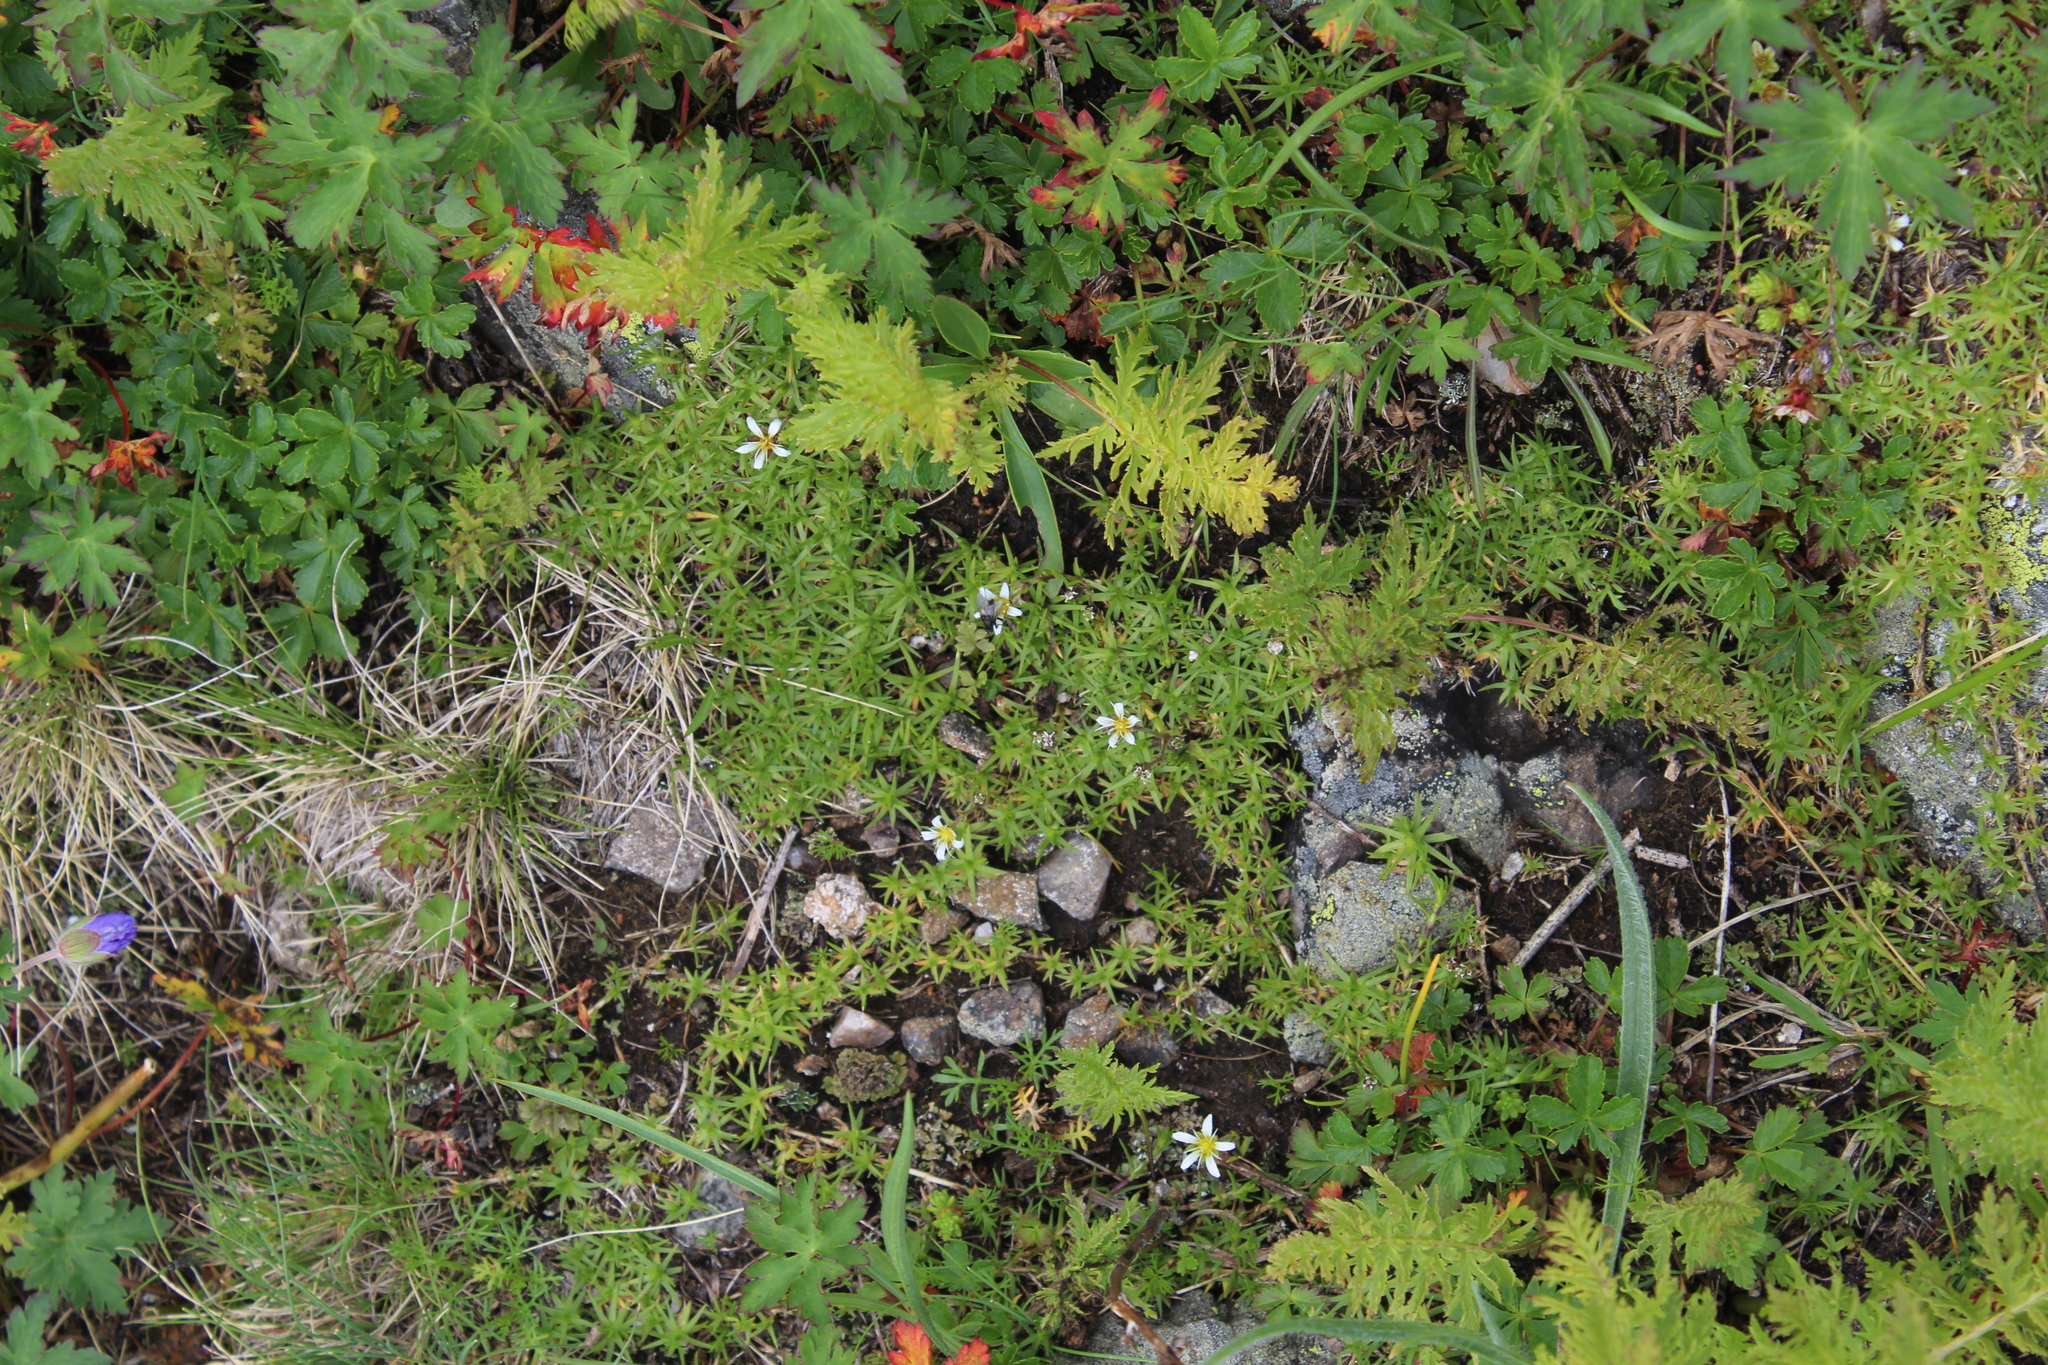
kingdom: Plantae
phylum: Tracheophyta
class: Magnoliopsida
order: Caryophyllales
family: Caryophyllaceae
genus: Pseudocherleria
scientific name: Pseudocherleria aizoides
